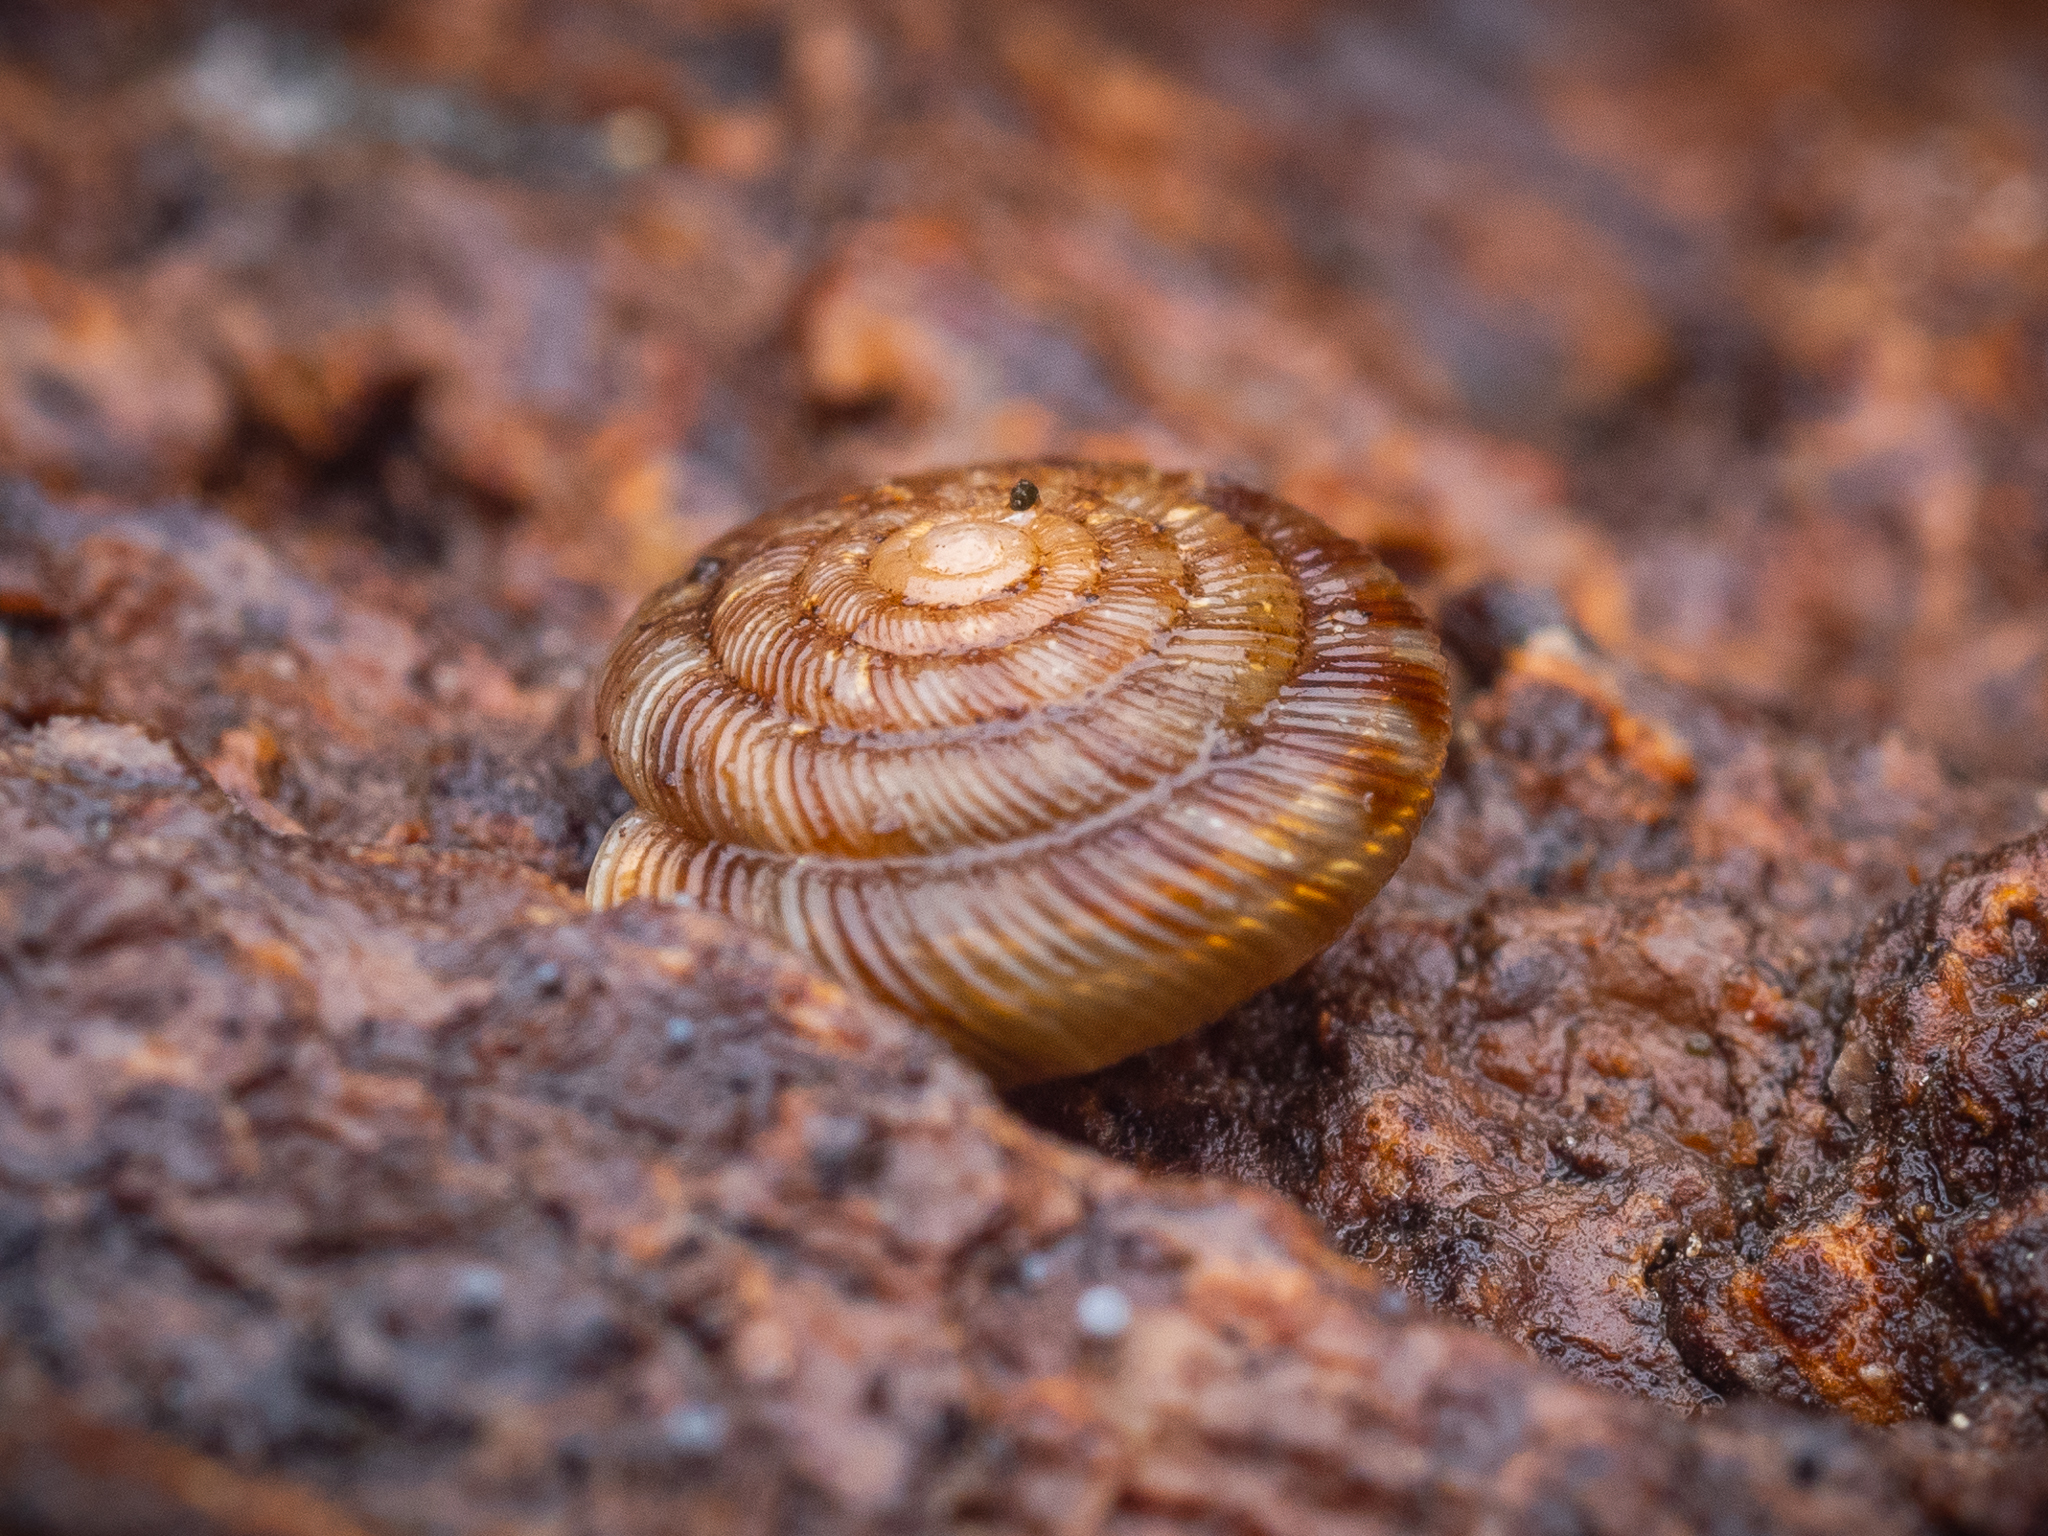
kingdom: Animalia
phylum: Mollusca
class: Gastropoda
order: Stylommatophora
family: Discidae
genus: Discus
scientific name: Discus rotundatus
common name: Rounded snail
